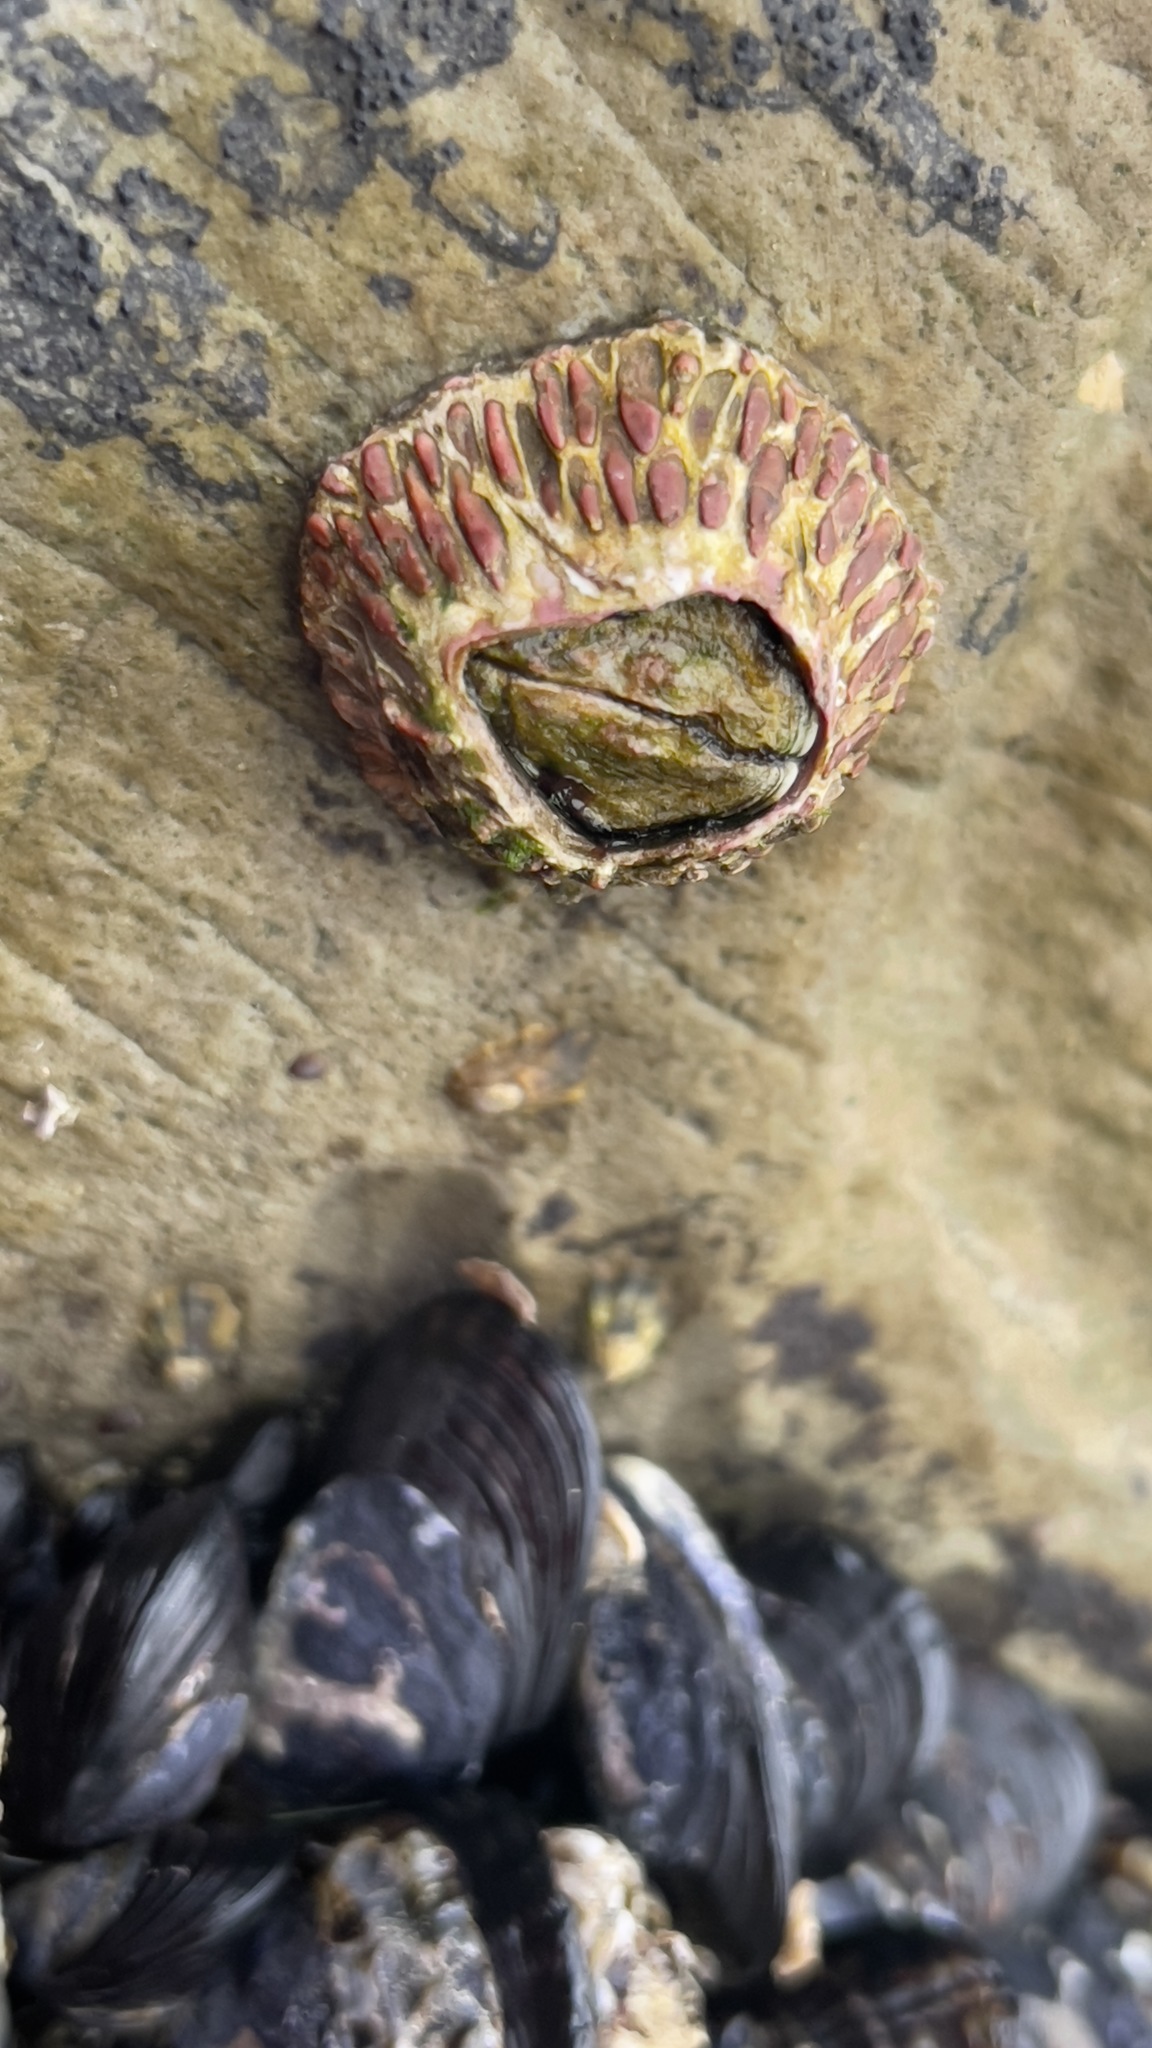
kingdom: Animalia
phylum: Arthropoda
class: Maxillopoda
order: Sessilia
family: Tetraclitidae
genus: Tetraclita
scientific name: Tetraclita rubescens
